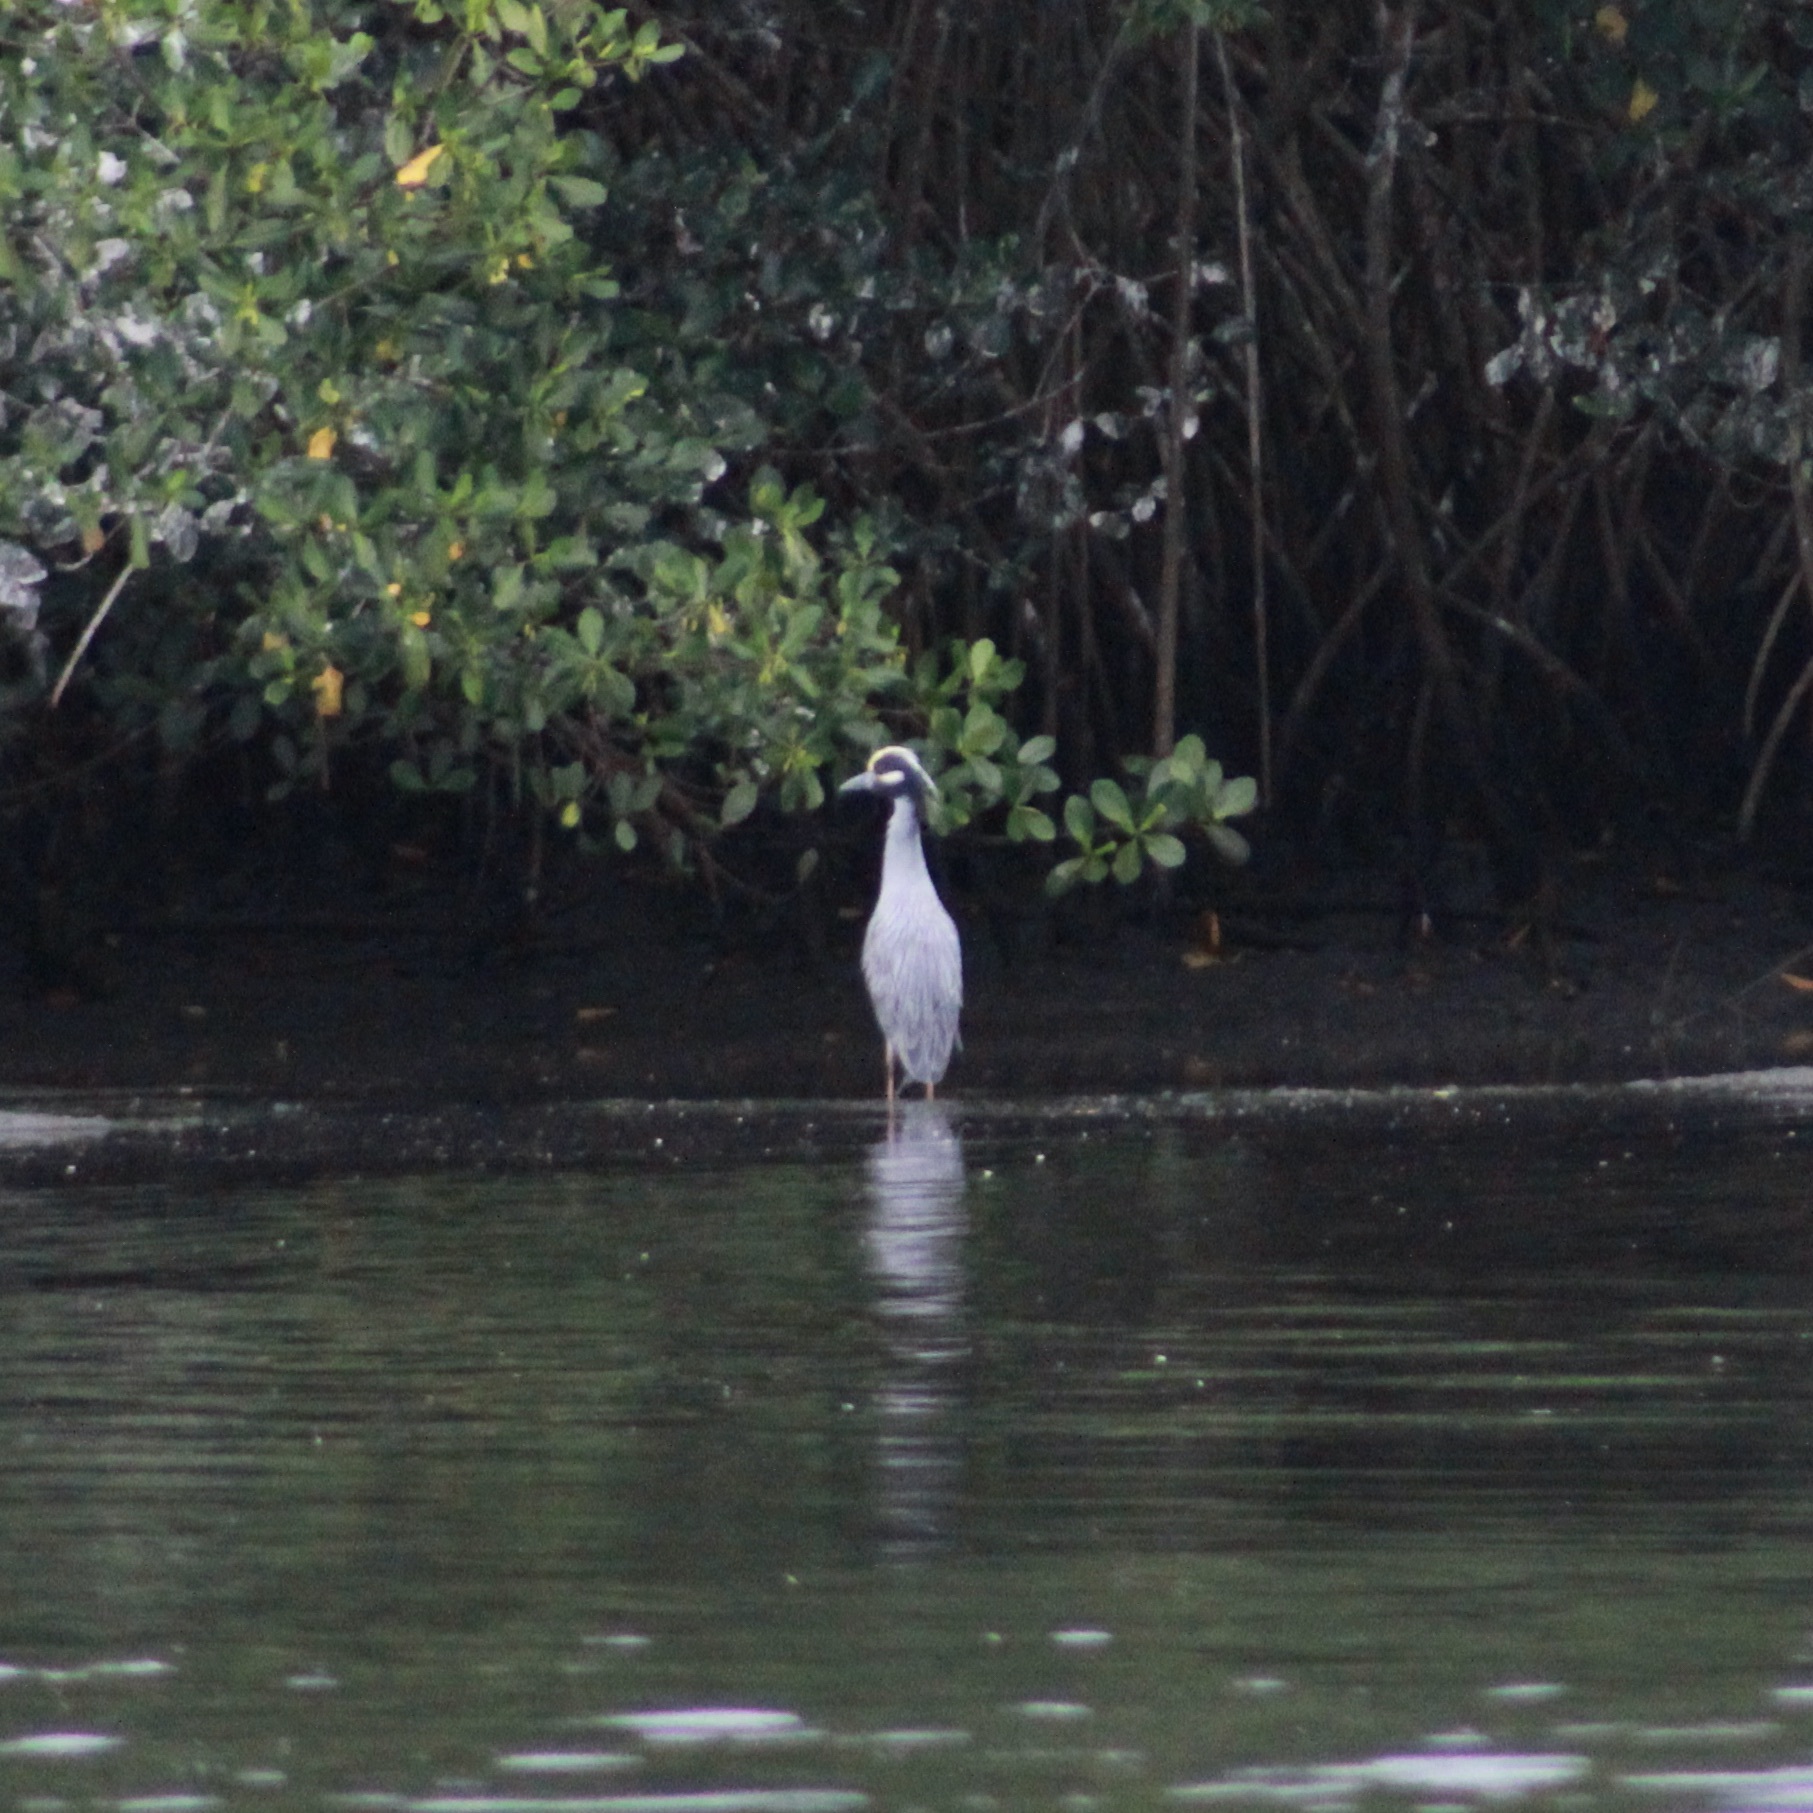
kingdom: Animalia
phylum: Chordata
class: Aves
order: Pelecaniformes
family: Ardeidae
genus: Nyctanassa
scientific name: Nyctanassa violacea
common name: Yellow-crowned night heron
